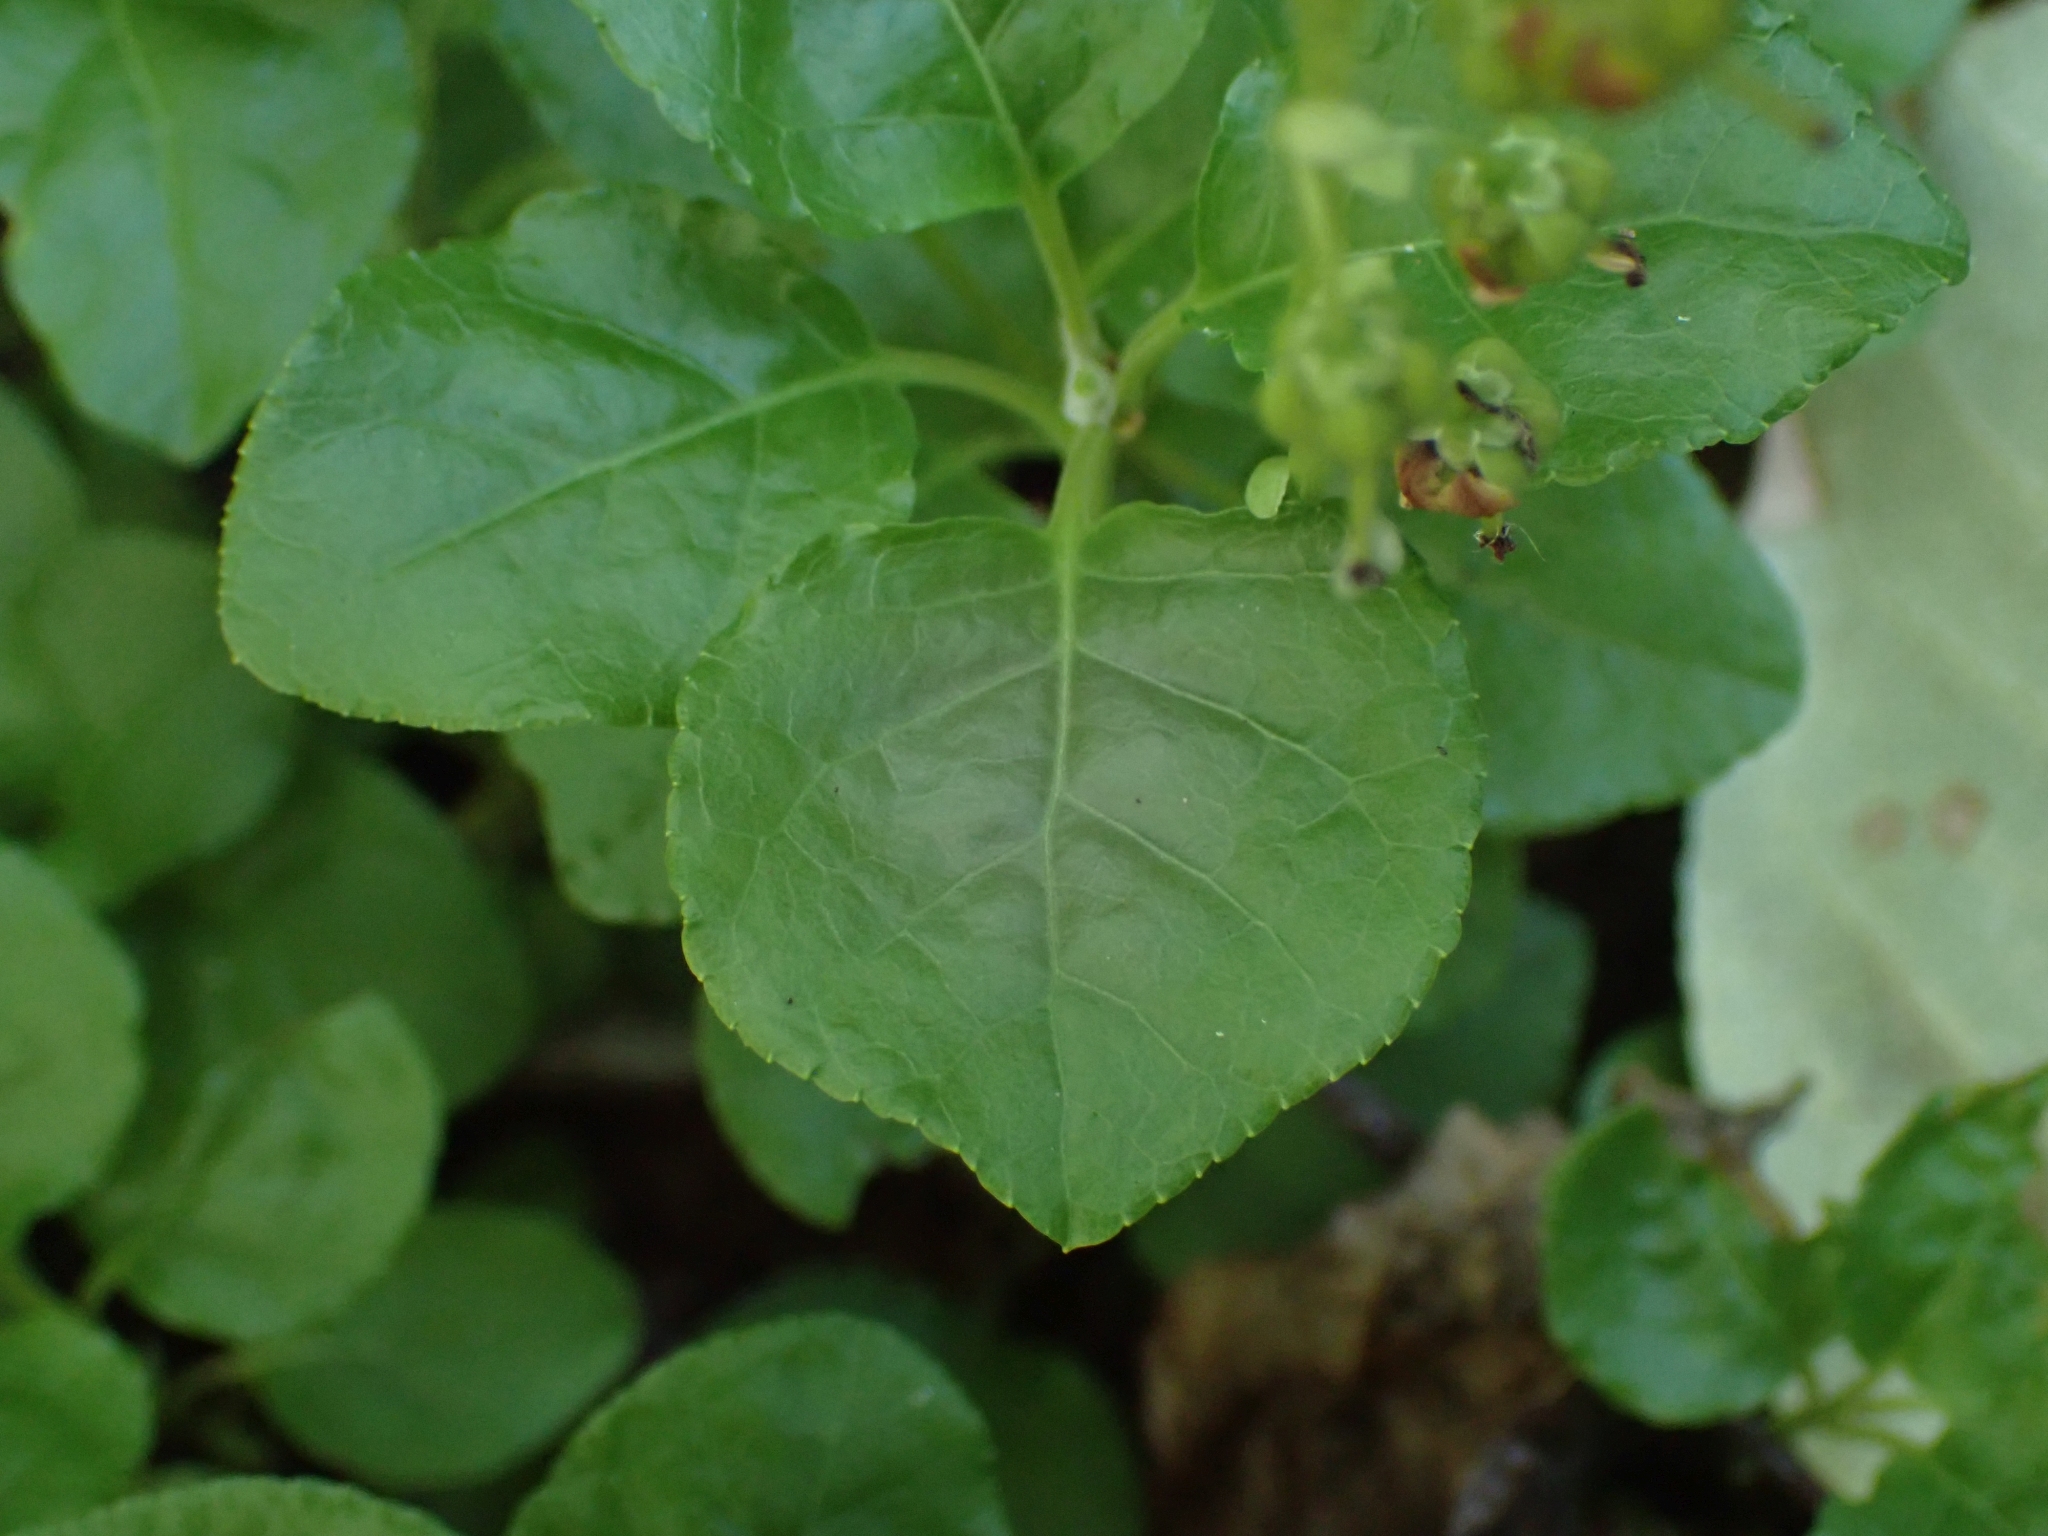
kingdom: Plantae
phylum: Tracheophyta
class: Magnoliopsida
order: Ericales
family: Ericaceae
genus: Orthilia
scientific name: Orthilia secunda
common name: One-sided orthilia
